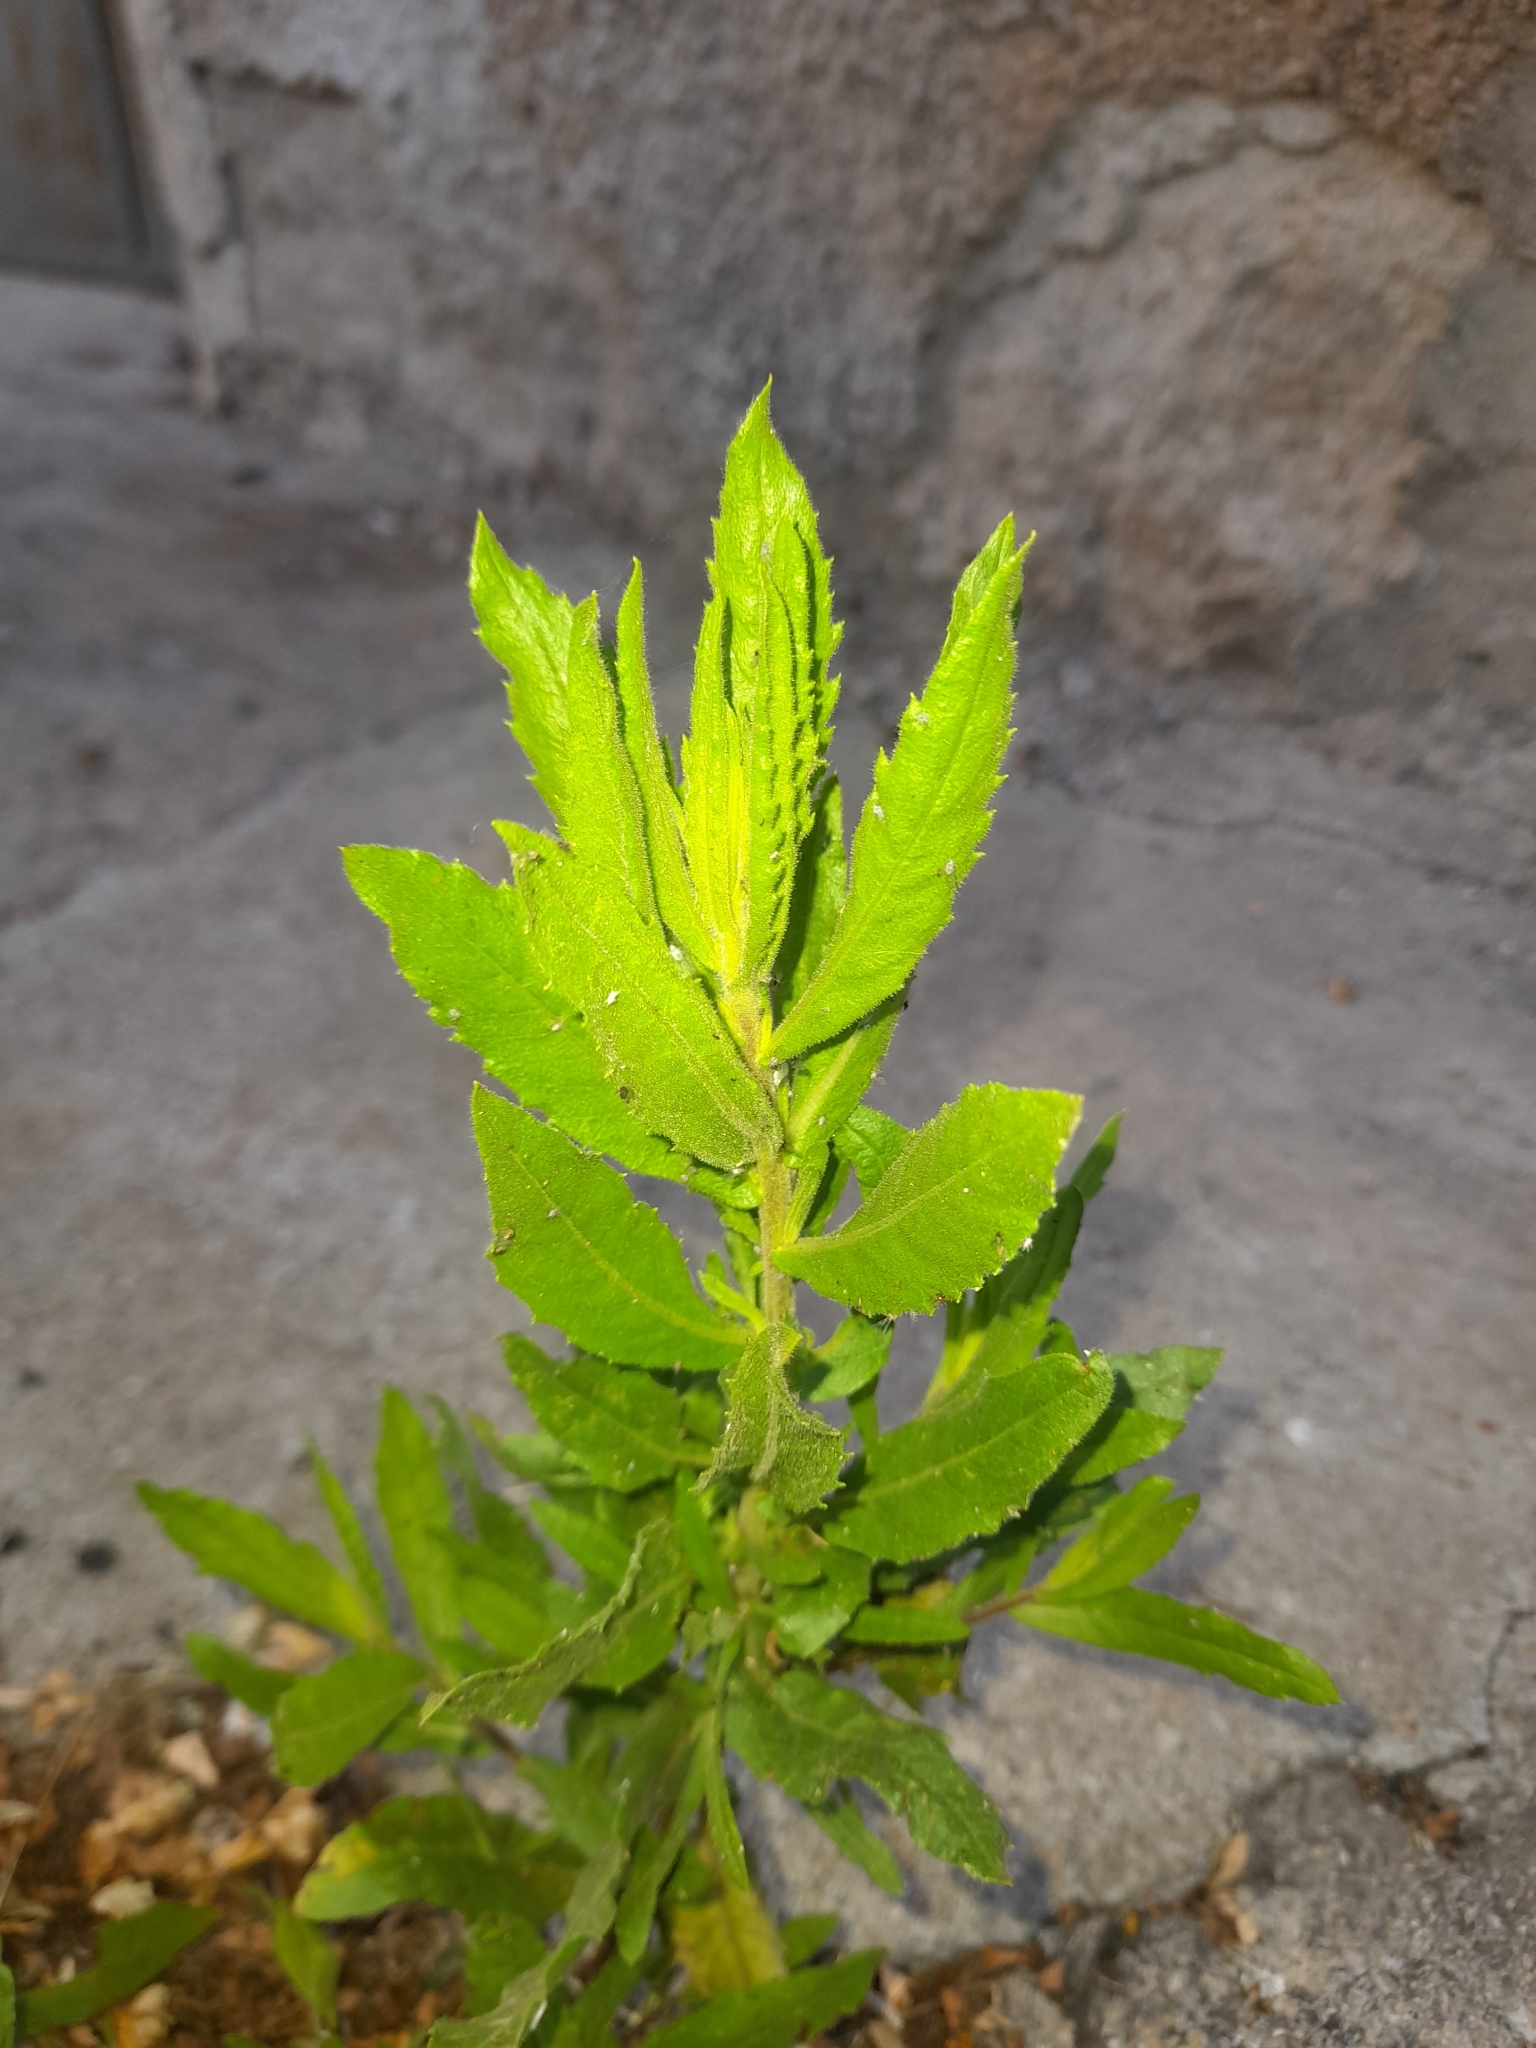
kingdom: Plantae
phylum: Tracheophyta
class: Magnoliopsida
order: Asterales
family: Asteraceae
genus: Dittrichia
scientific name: Dittrichia viscosa
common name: Woody fleabane
